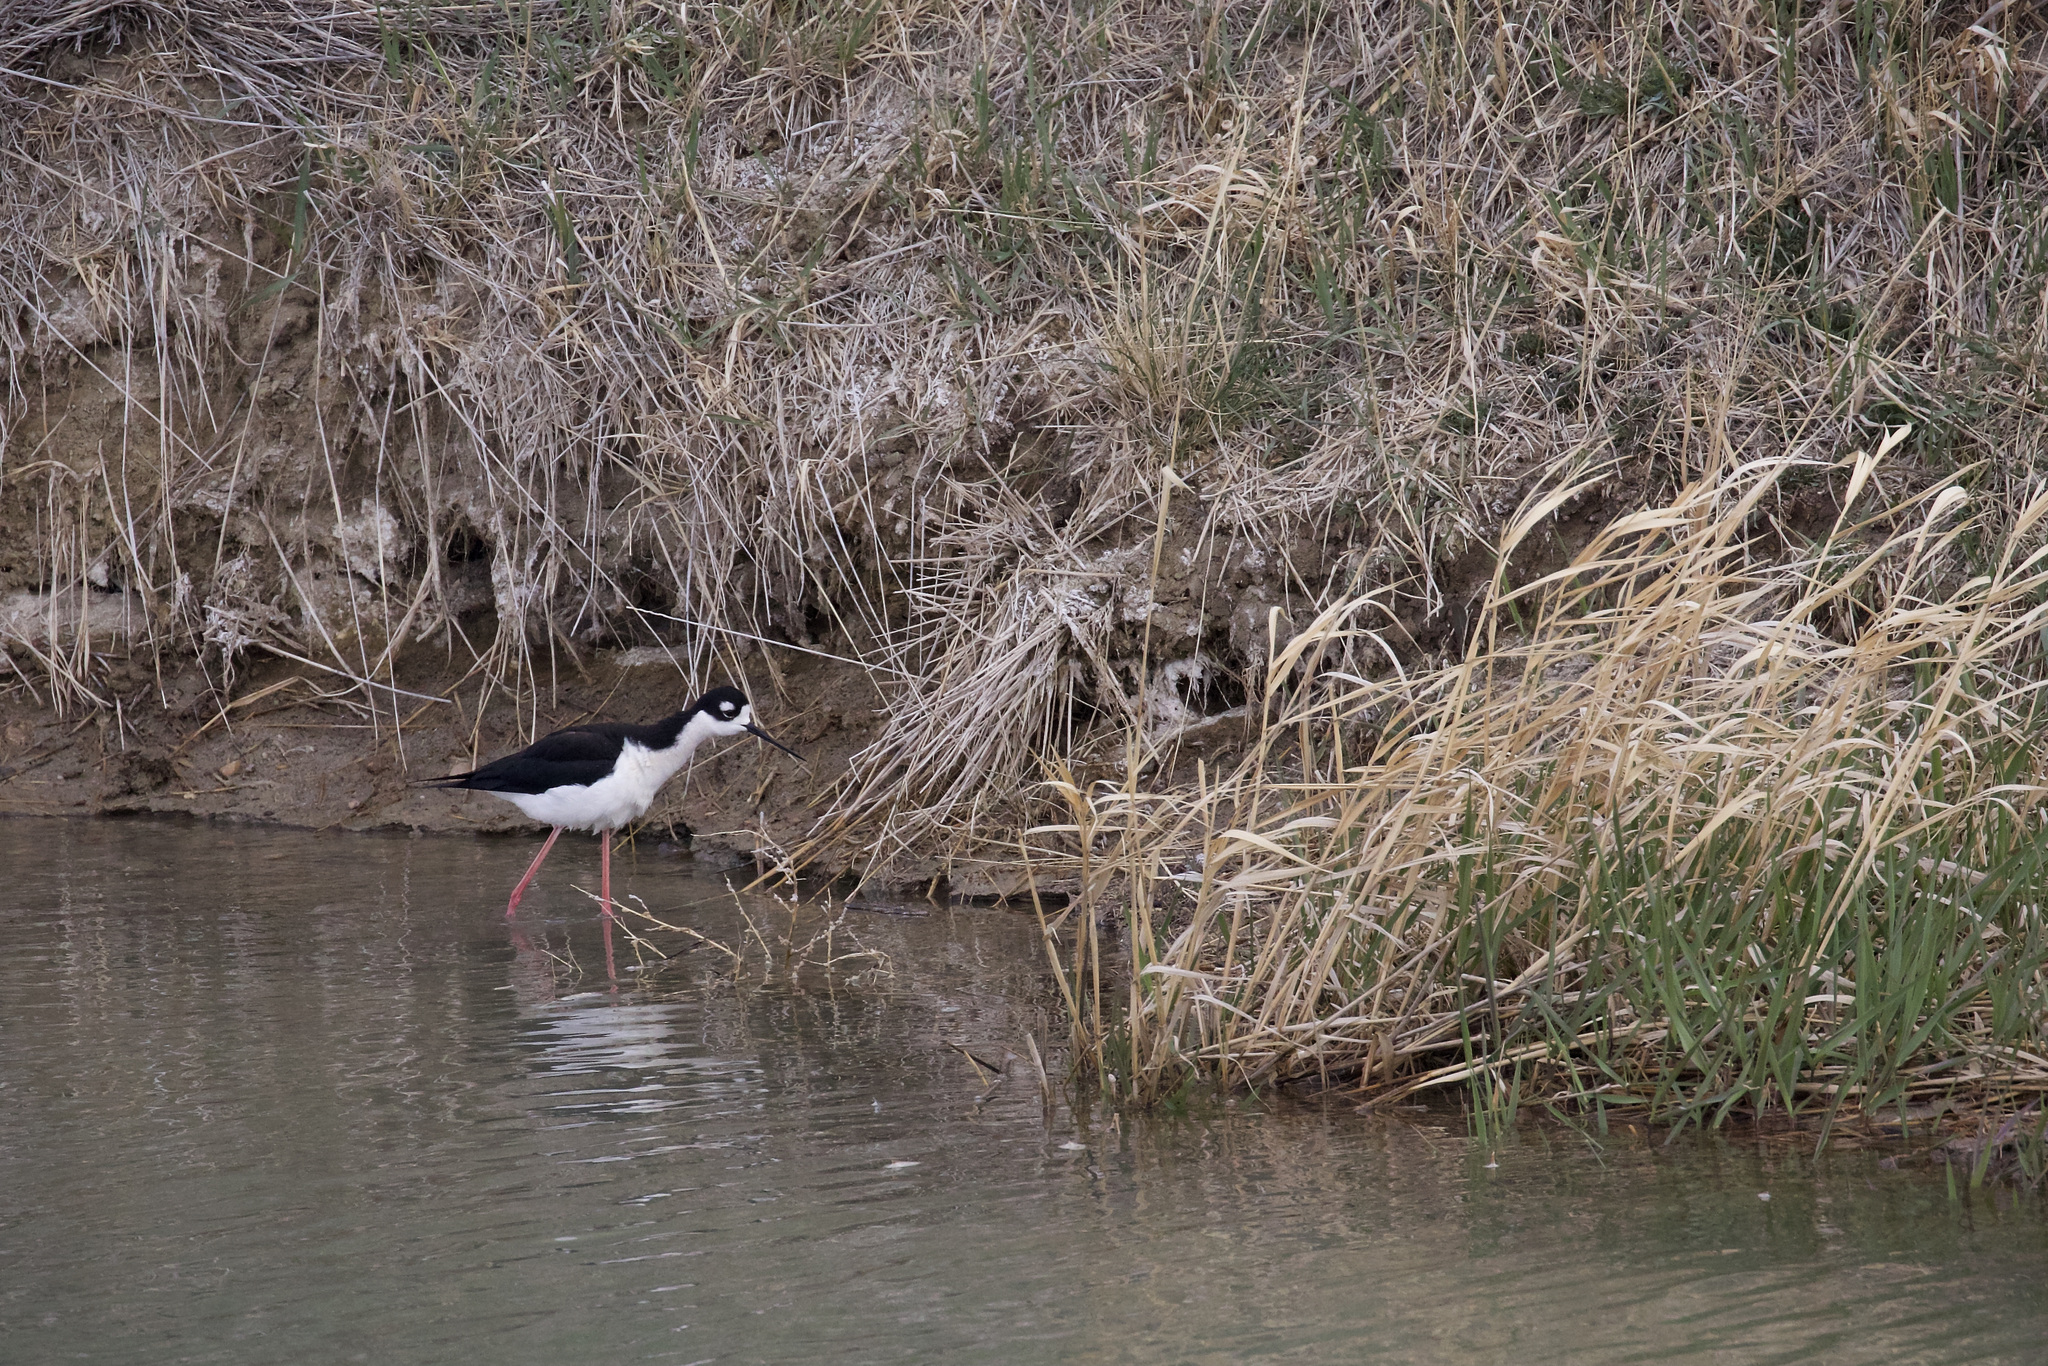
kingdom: Animalia
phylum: Chordata
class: Aves
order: Charadriiformes
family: Recurvirostridae
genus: Himantopus
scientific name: Himantopus mexicanus
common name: Black-necked stilt
